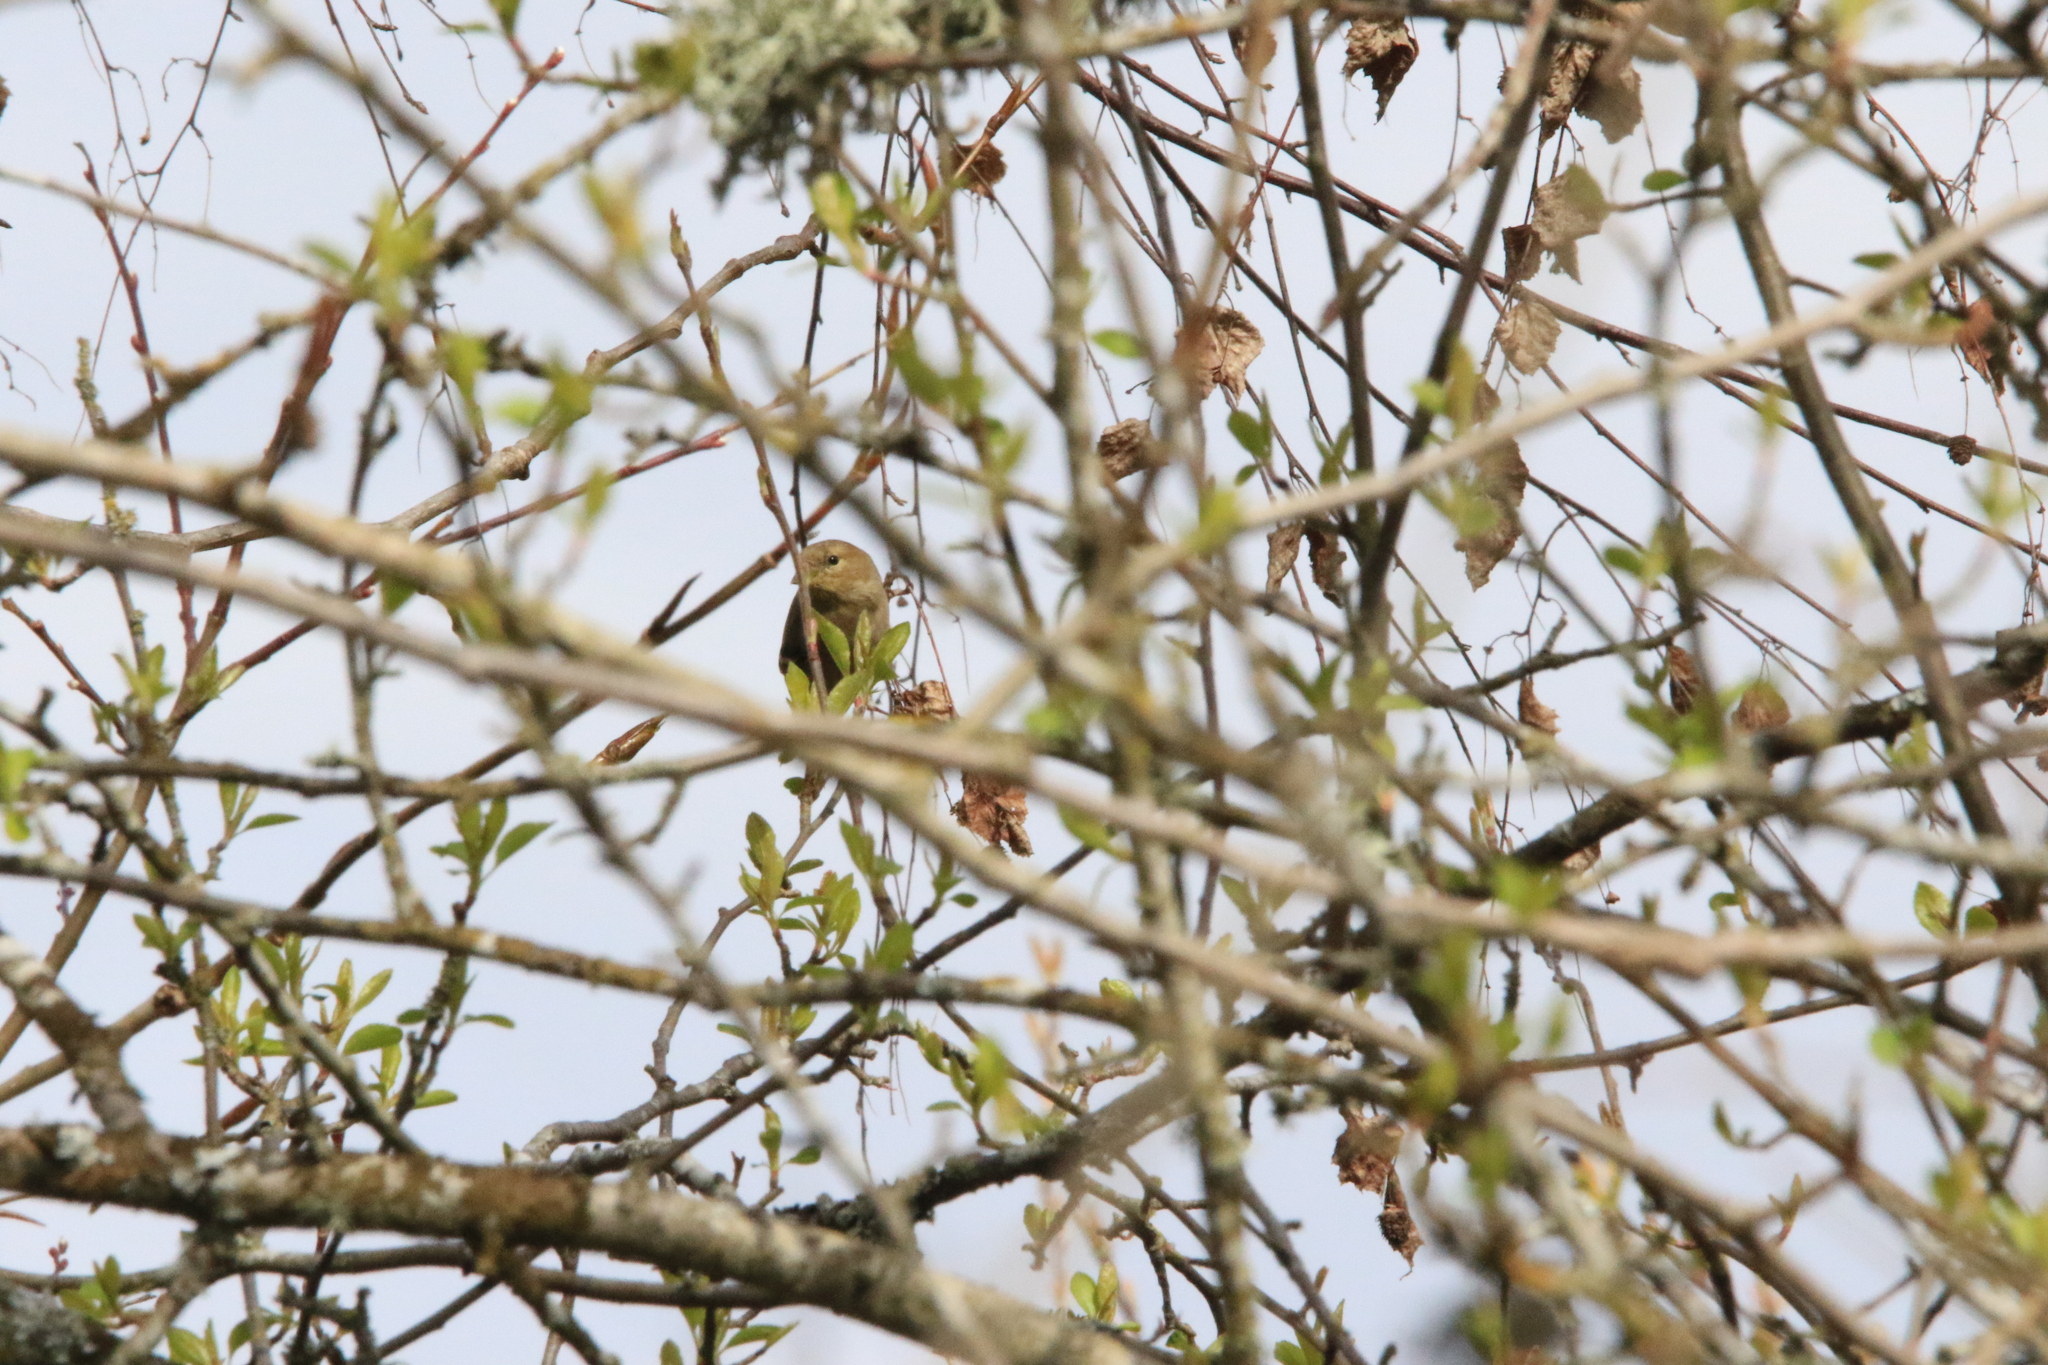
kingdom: Animalia
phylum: Chordata
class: Aves
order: Passeriformes
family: Fringillidae
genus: Spinus
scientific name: Spinus tristis
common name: American goldfinch
